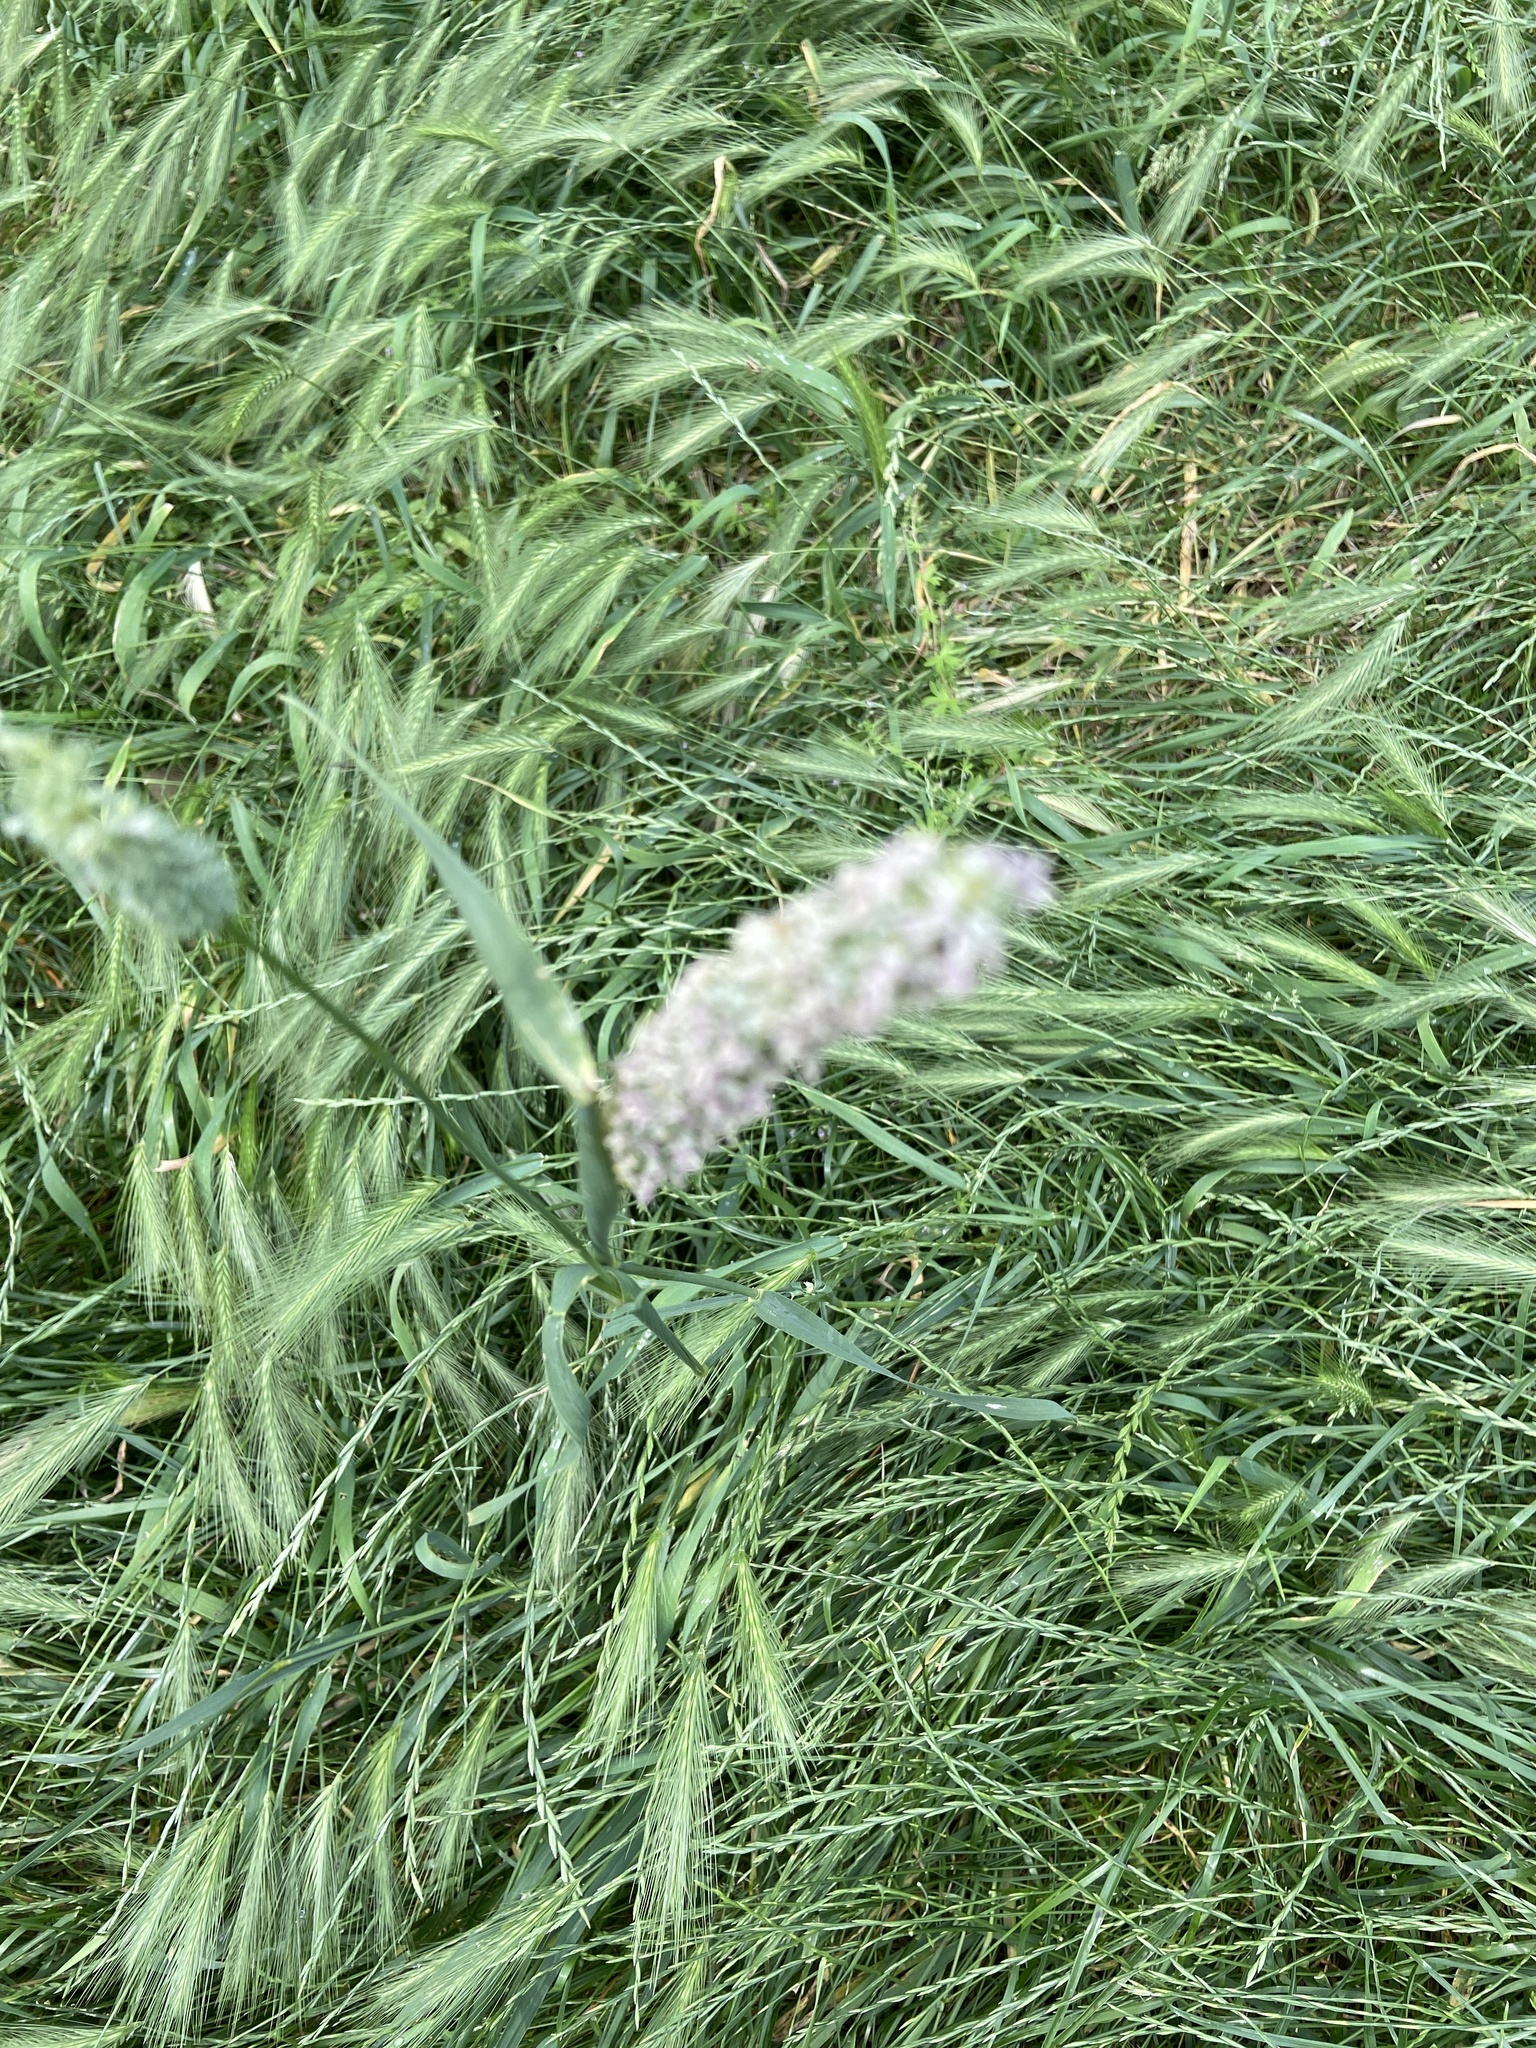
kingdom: Plantae
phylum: Tracheophyta
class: Liliopsida
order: Poales
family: Poaceae
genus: Phleum
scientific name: Phleum pratense
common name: Timothy grass
